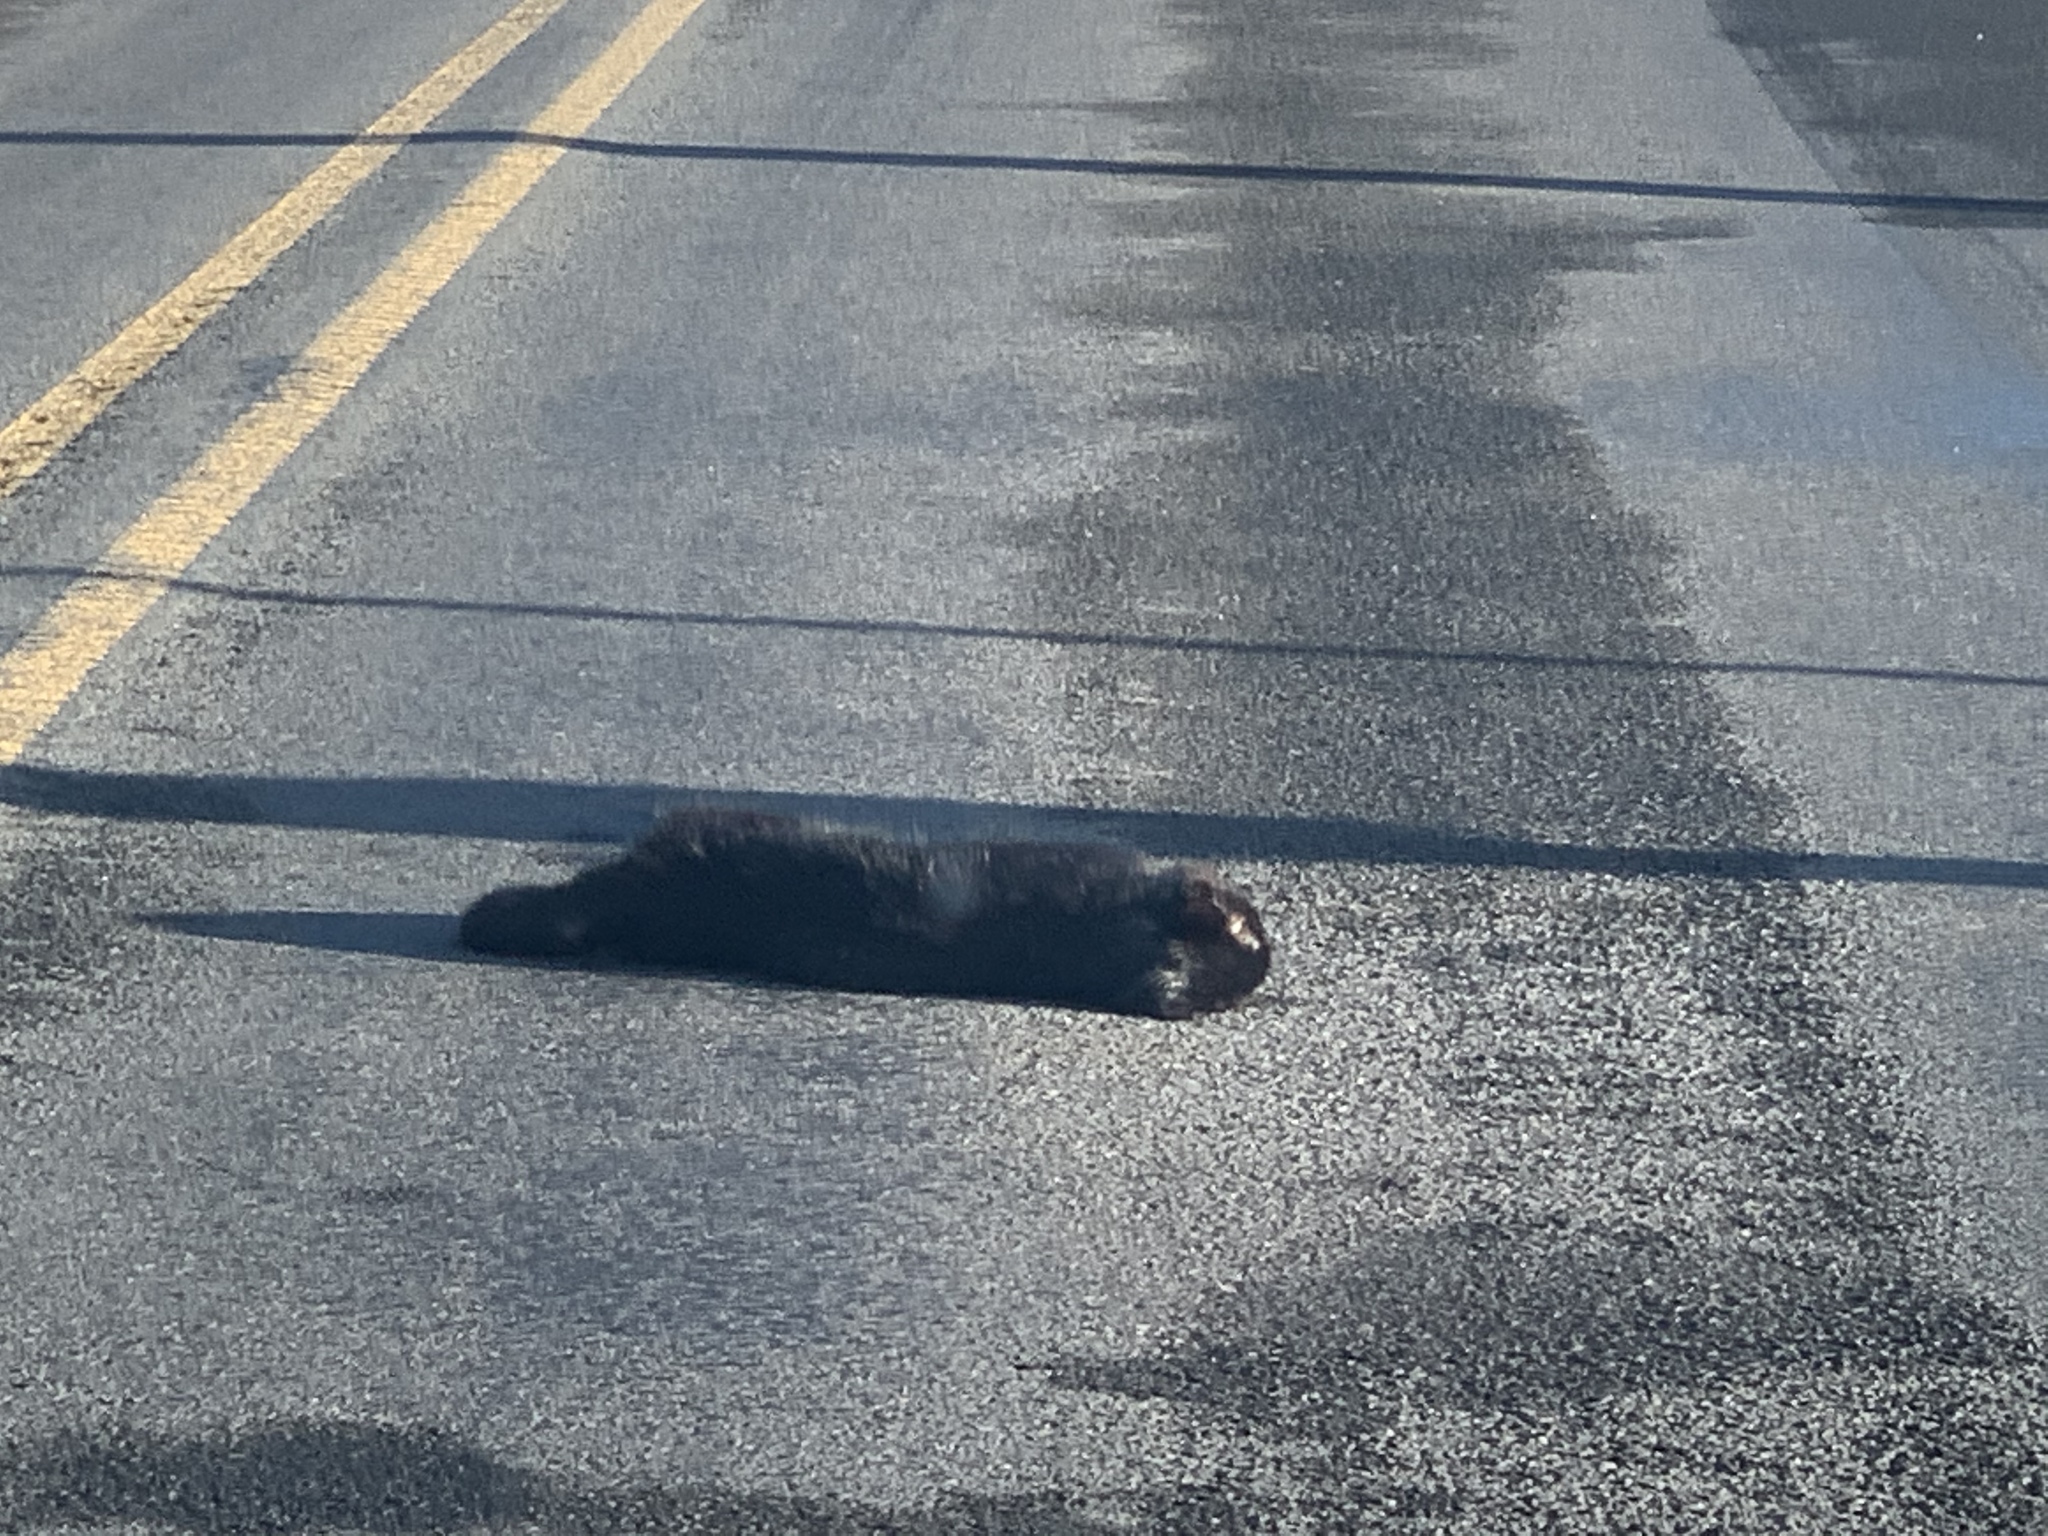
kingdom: Animalia
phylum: Chordata
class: Mammalia
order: Carnivora
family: Felidae
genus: Felis
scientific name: Felis catus
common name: Domestic cat
